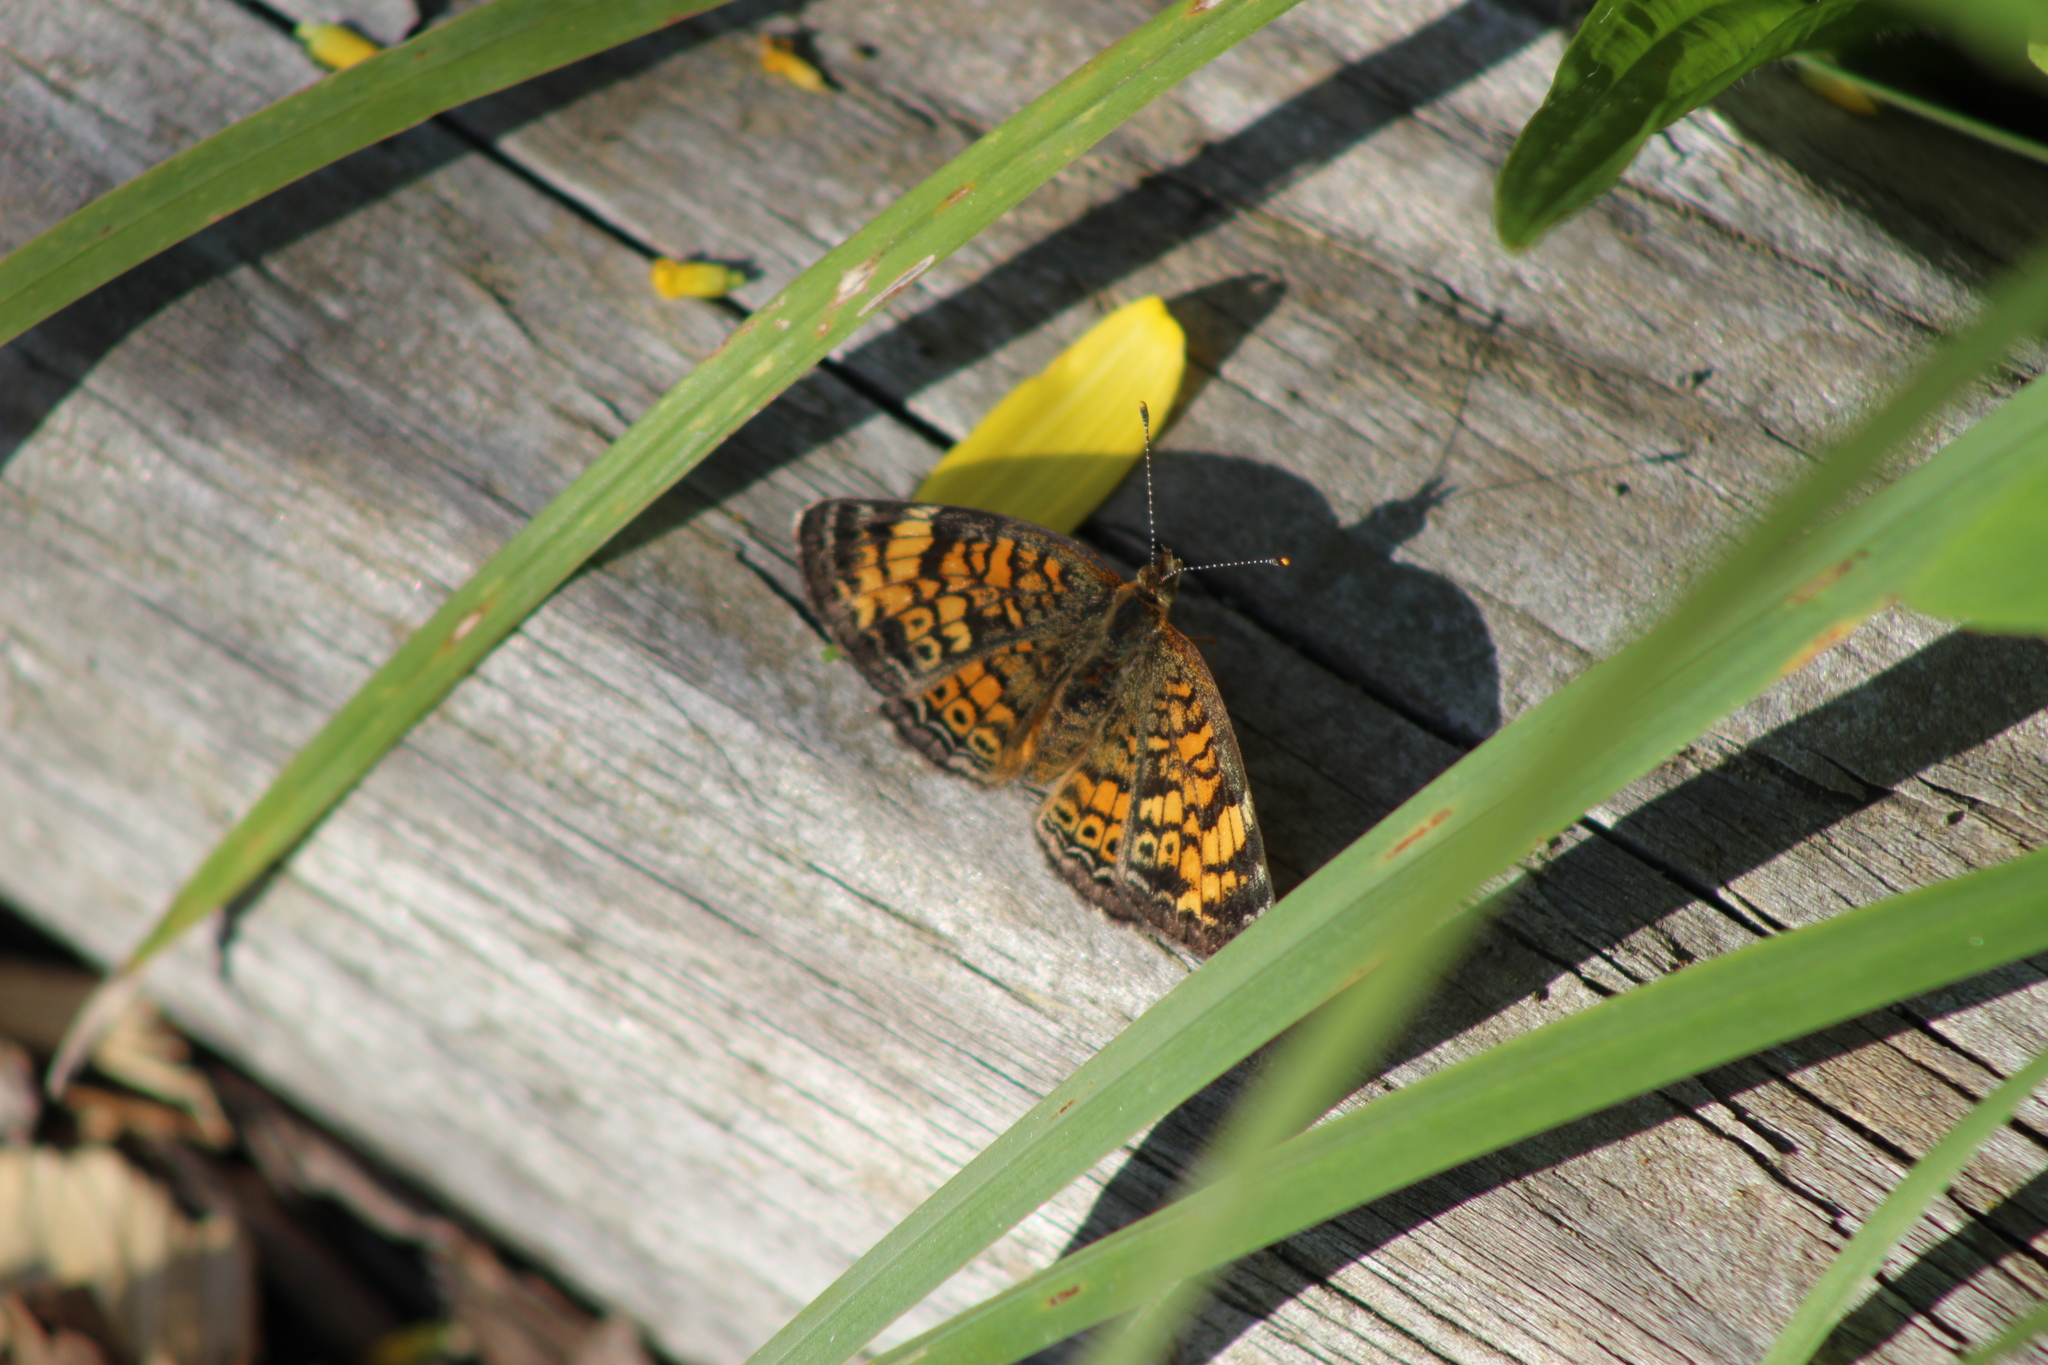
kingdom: Animalia
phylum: Arthropoda
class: Insecta
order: Lepidoptera
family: Nymphalidae
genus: Phyciodes
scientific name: Phyciodes tharos
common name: Pearl crescent
